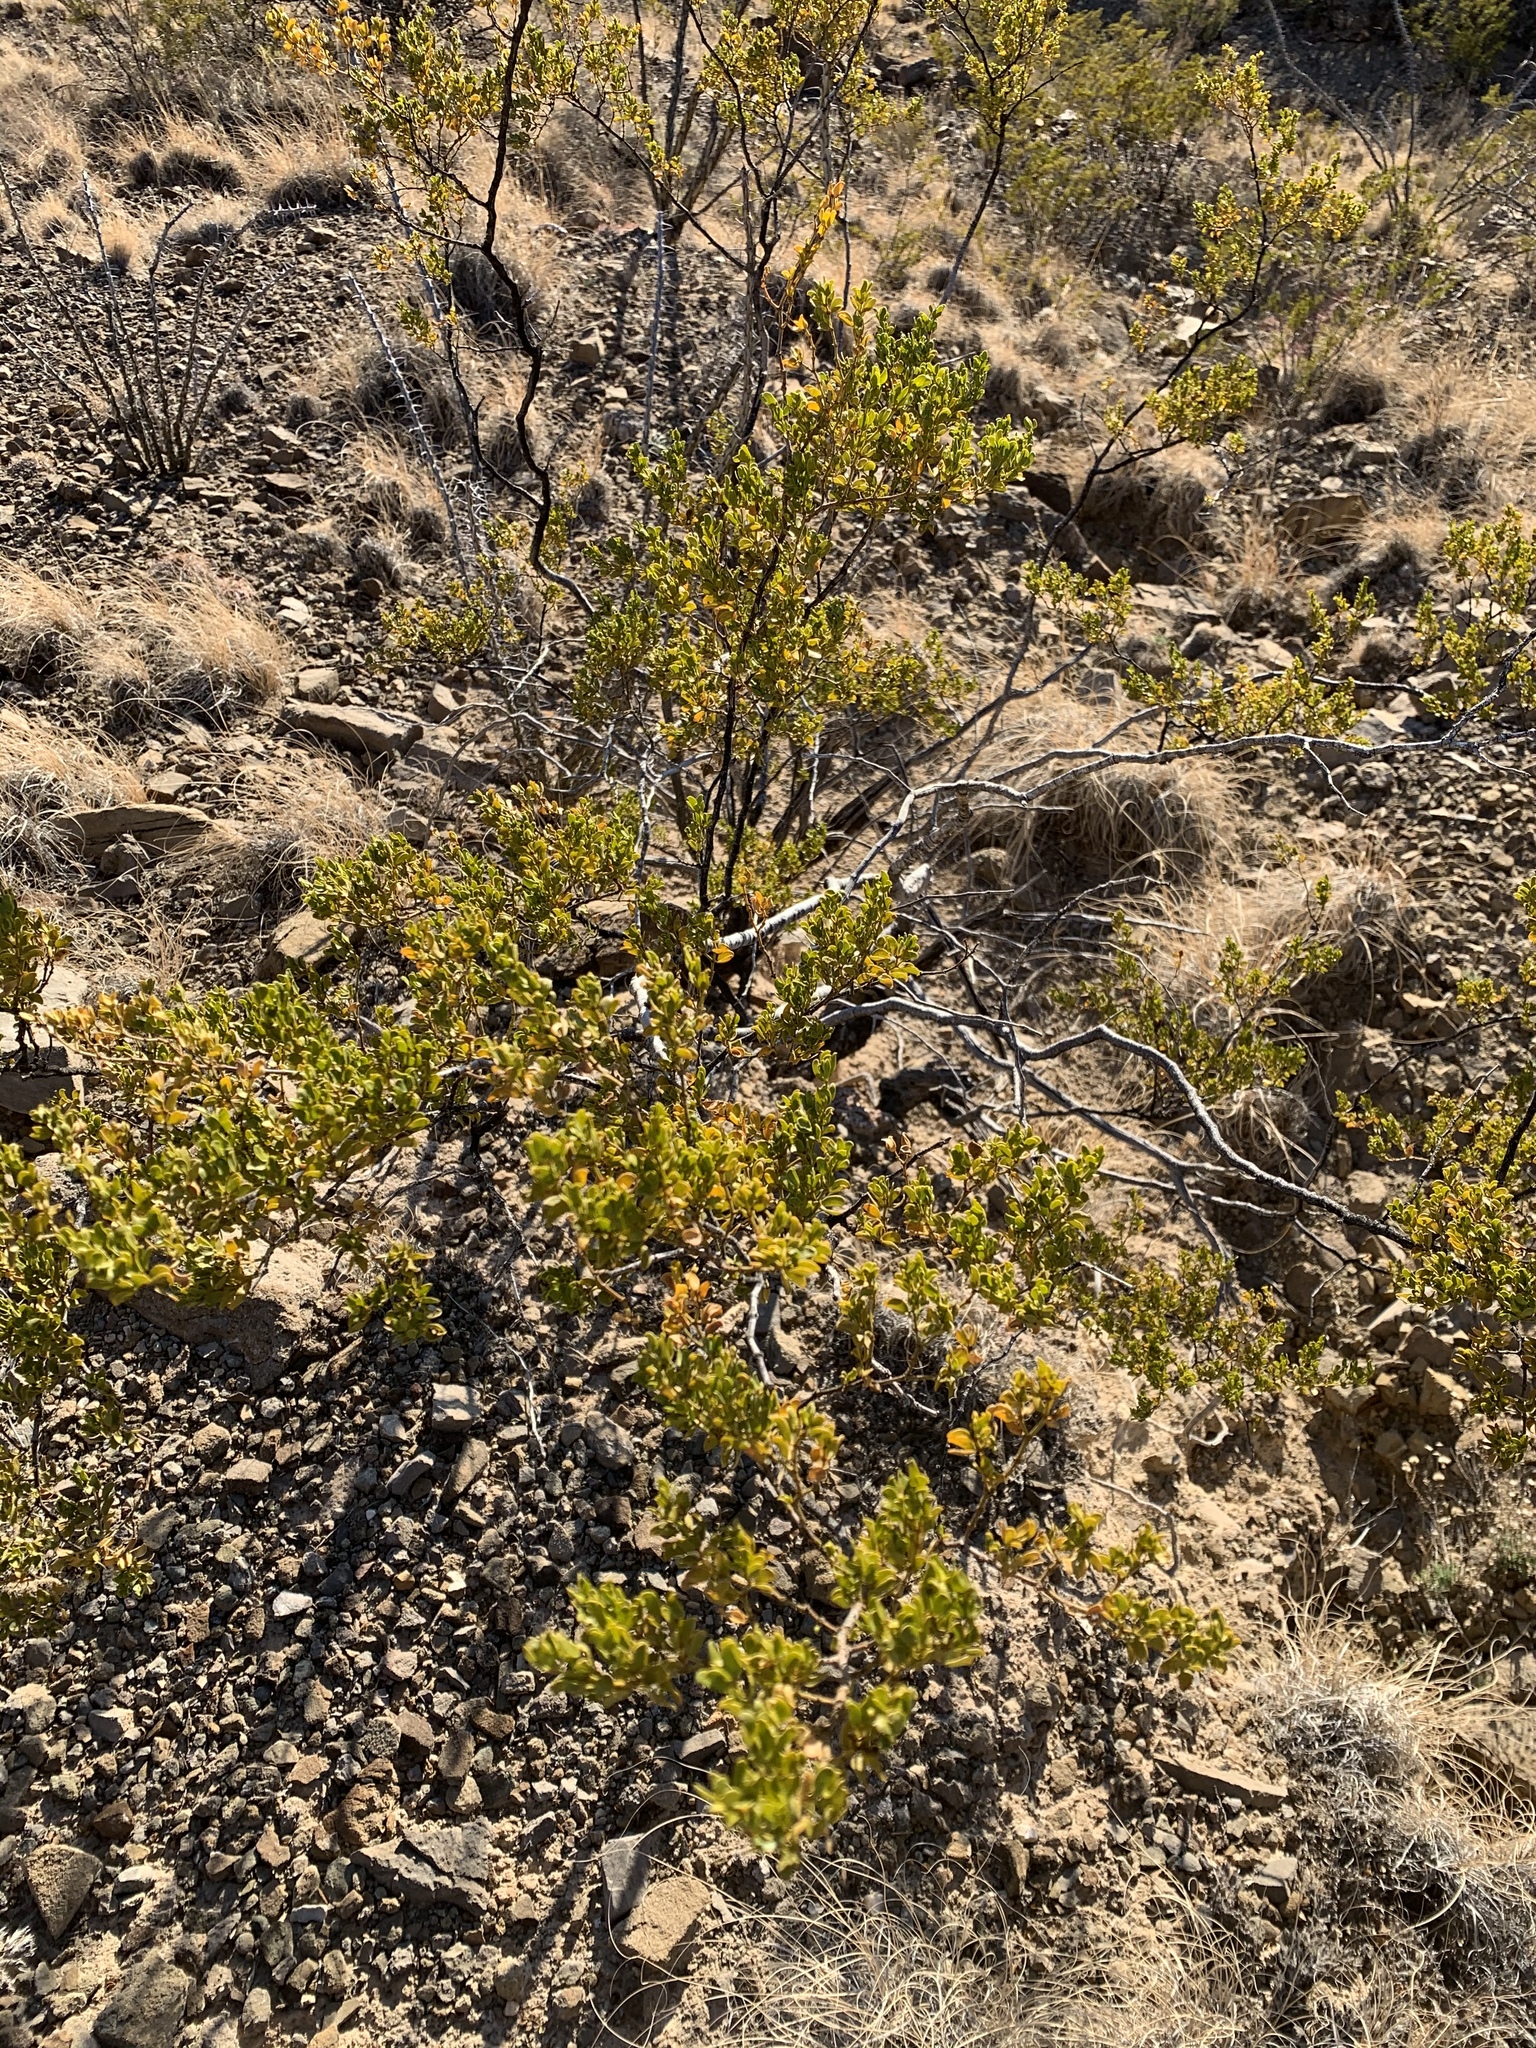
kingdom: Plantae
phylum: Tracheophyta
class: Magnoliopsida
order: Zygophyllales
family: Zygophyllaceae
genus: Larrea
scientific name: Larrea tridentata
